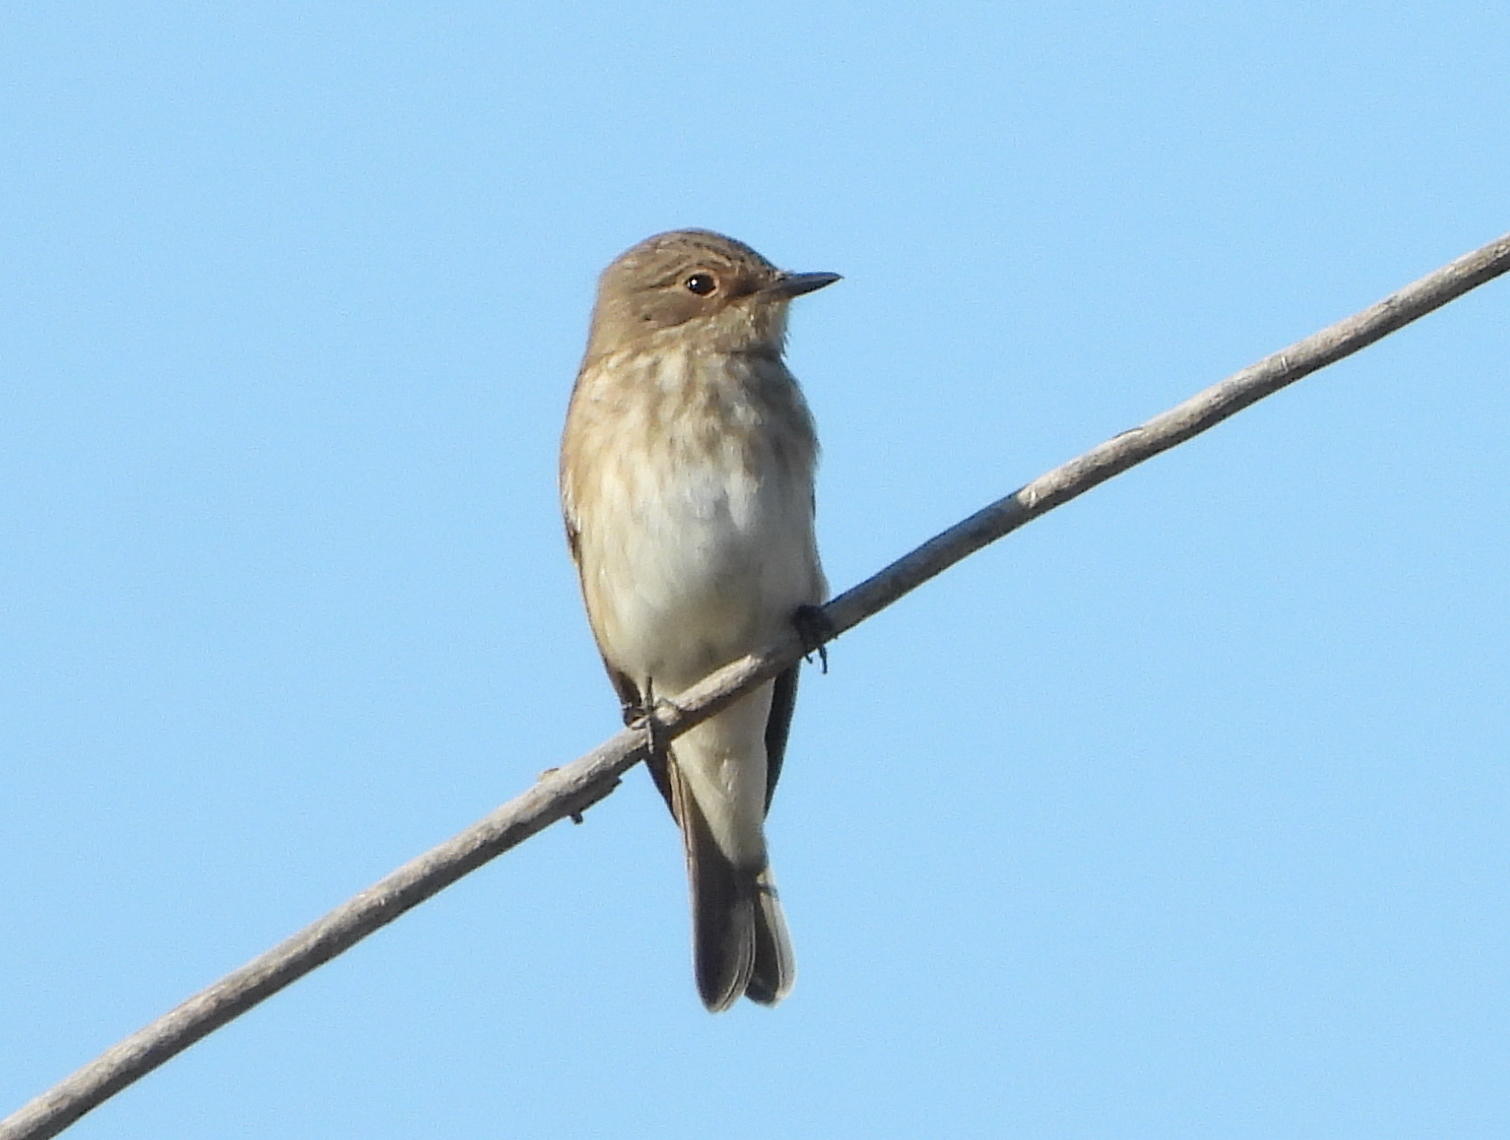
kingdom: Animalia
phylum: Chordata
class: Aves
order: Passeriformes
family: Muscicapidae
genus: Muscicapa
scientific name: Muscicapa striata
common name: Spotted flycatcher
